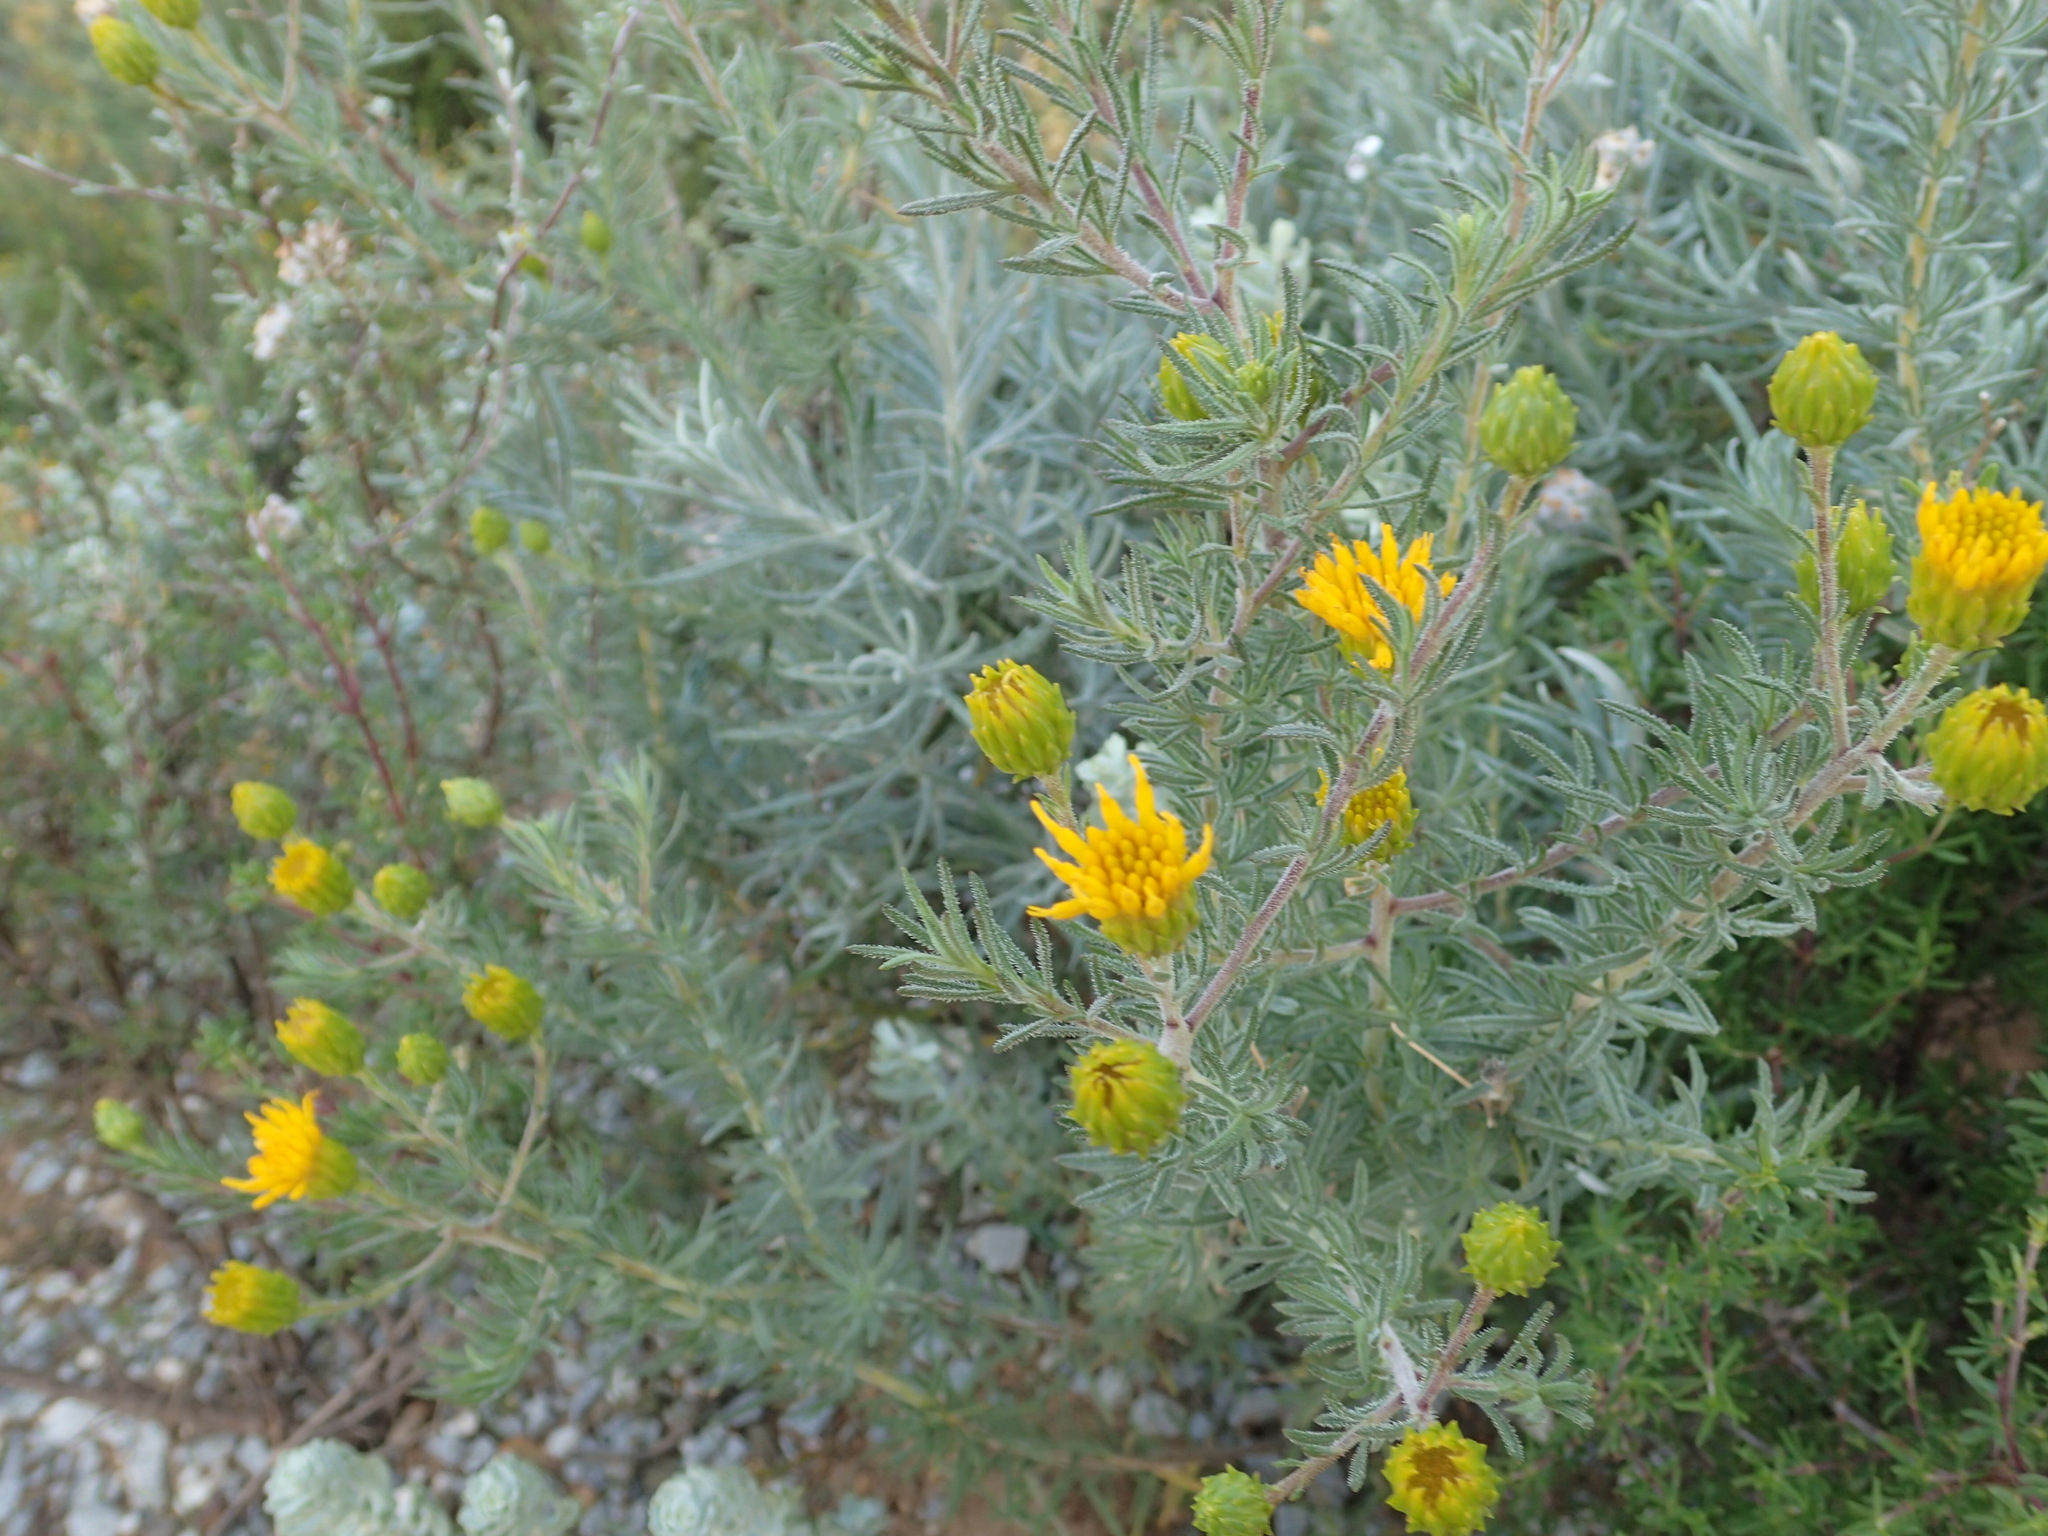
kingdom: Plantae
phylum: Tracheophyta
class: Magnoliopsida
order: Asterales
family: Asteraceae
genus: Pteronia
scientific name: Pteronia camphorata
